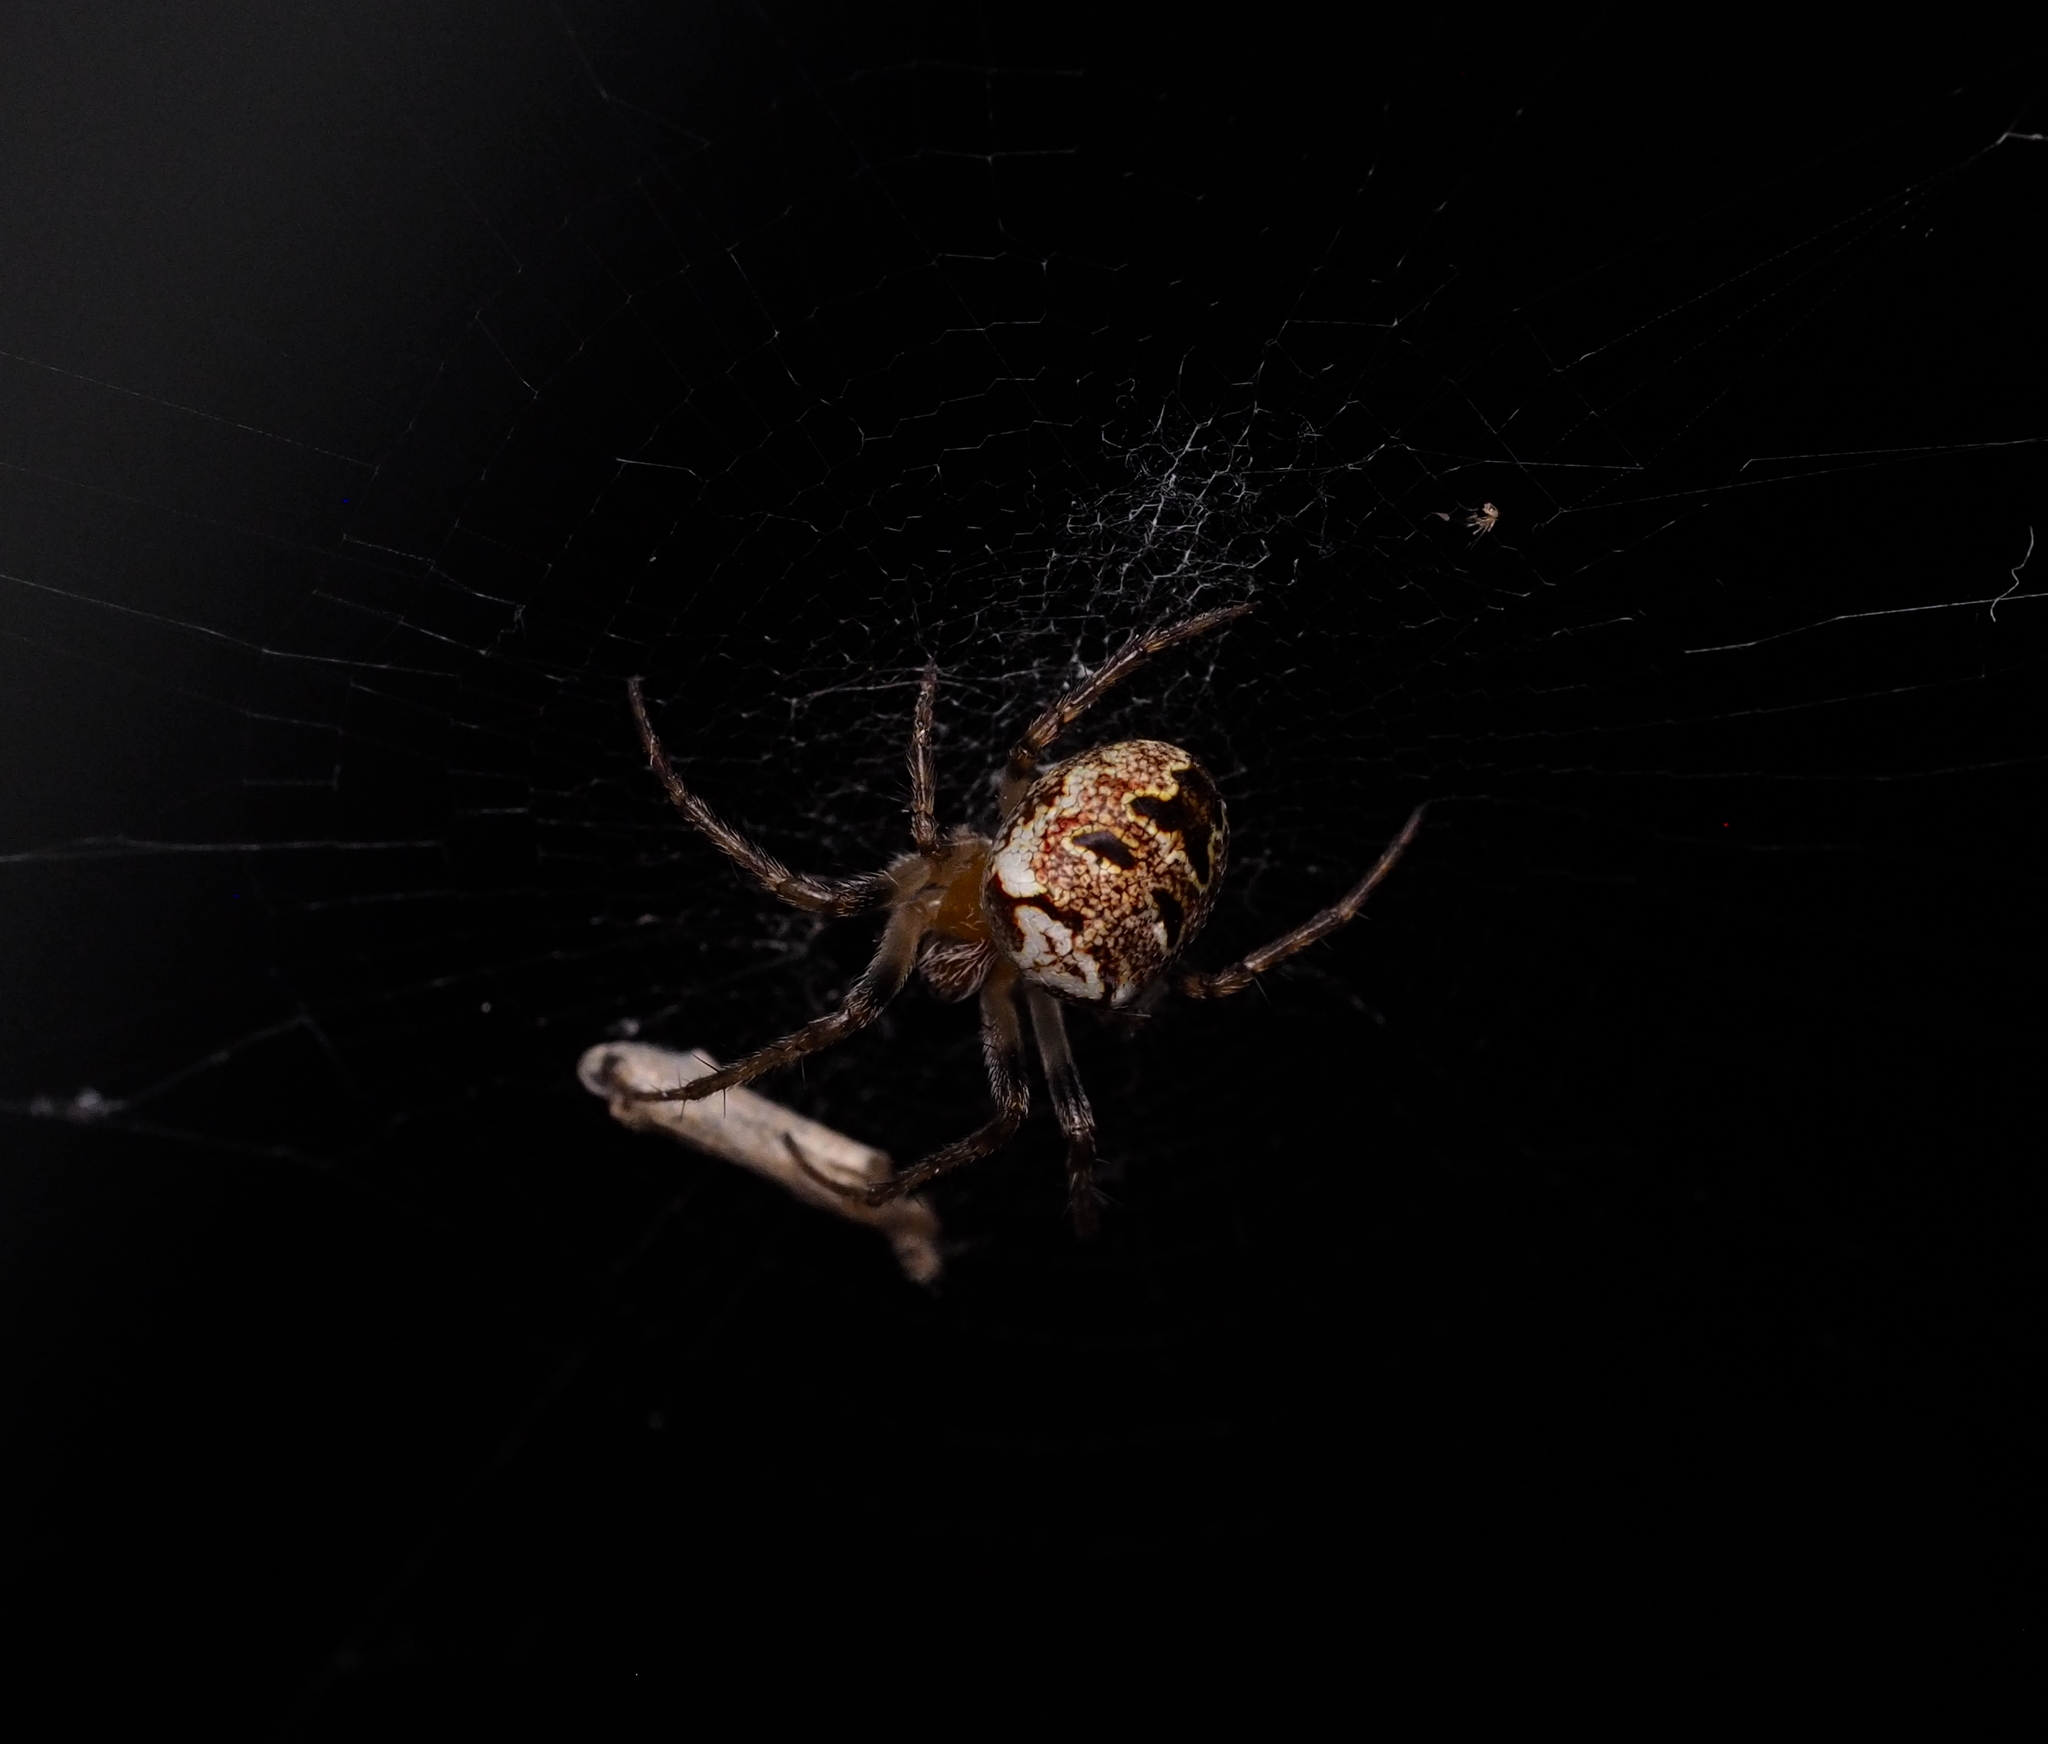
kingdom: Animalia
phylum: Arthropoda
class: Arachnida
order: Araneae
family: Araneidae
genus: Zilla
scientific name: Zilla diodia
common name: Zilla diodia
